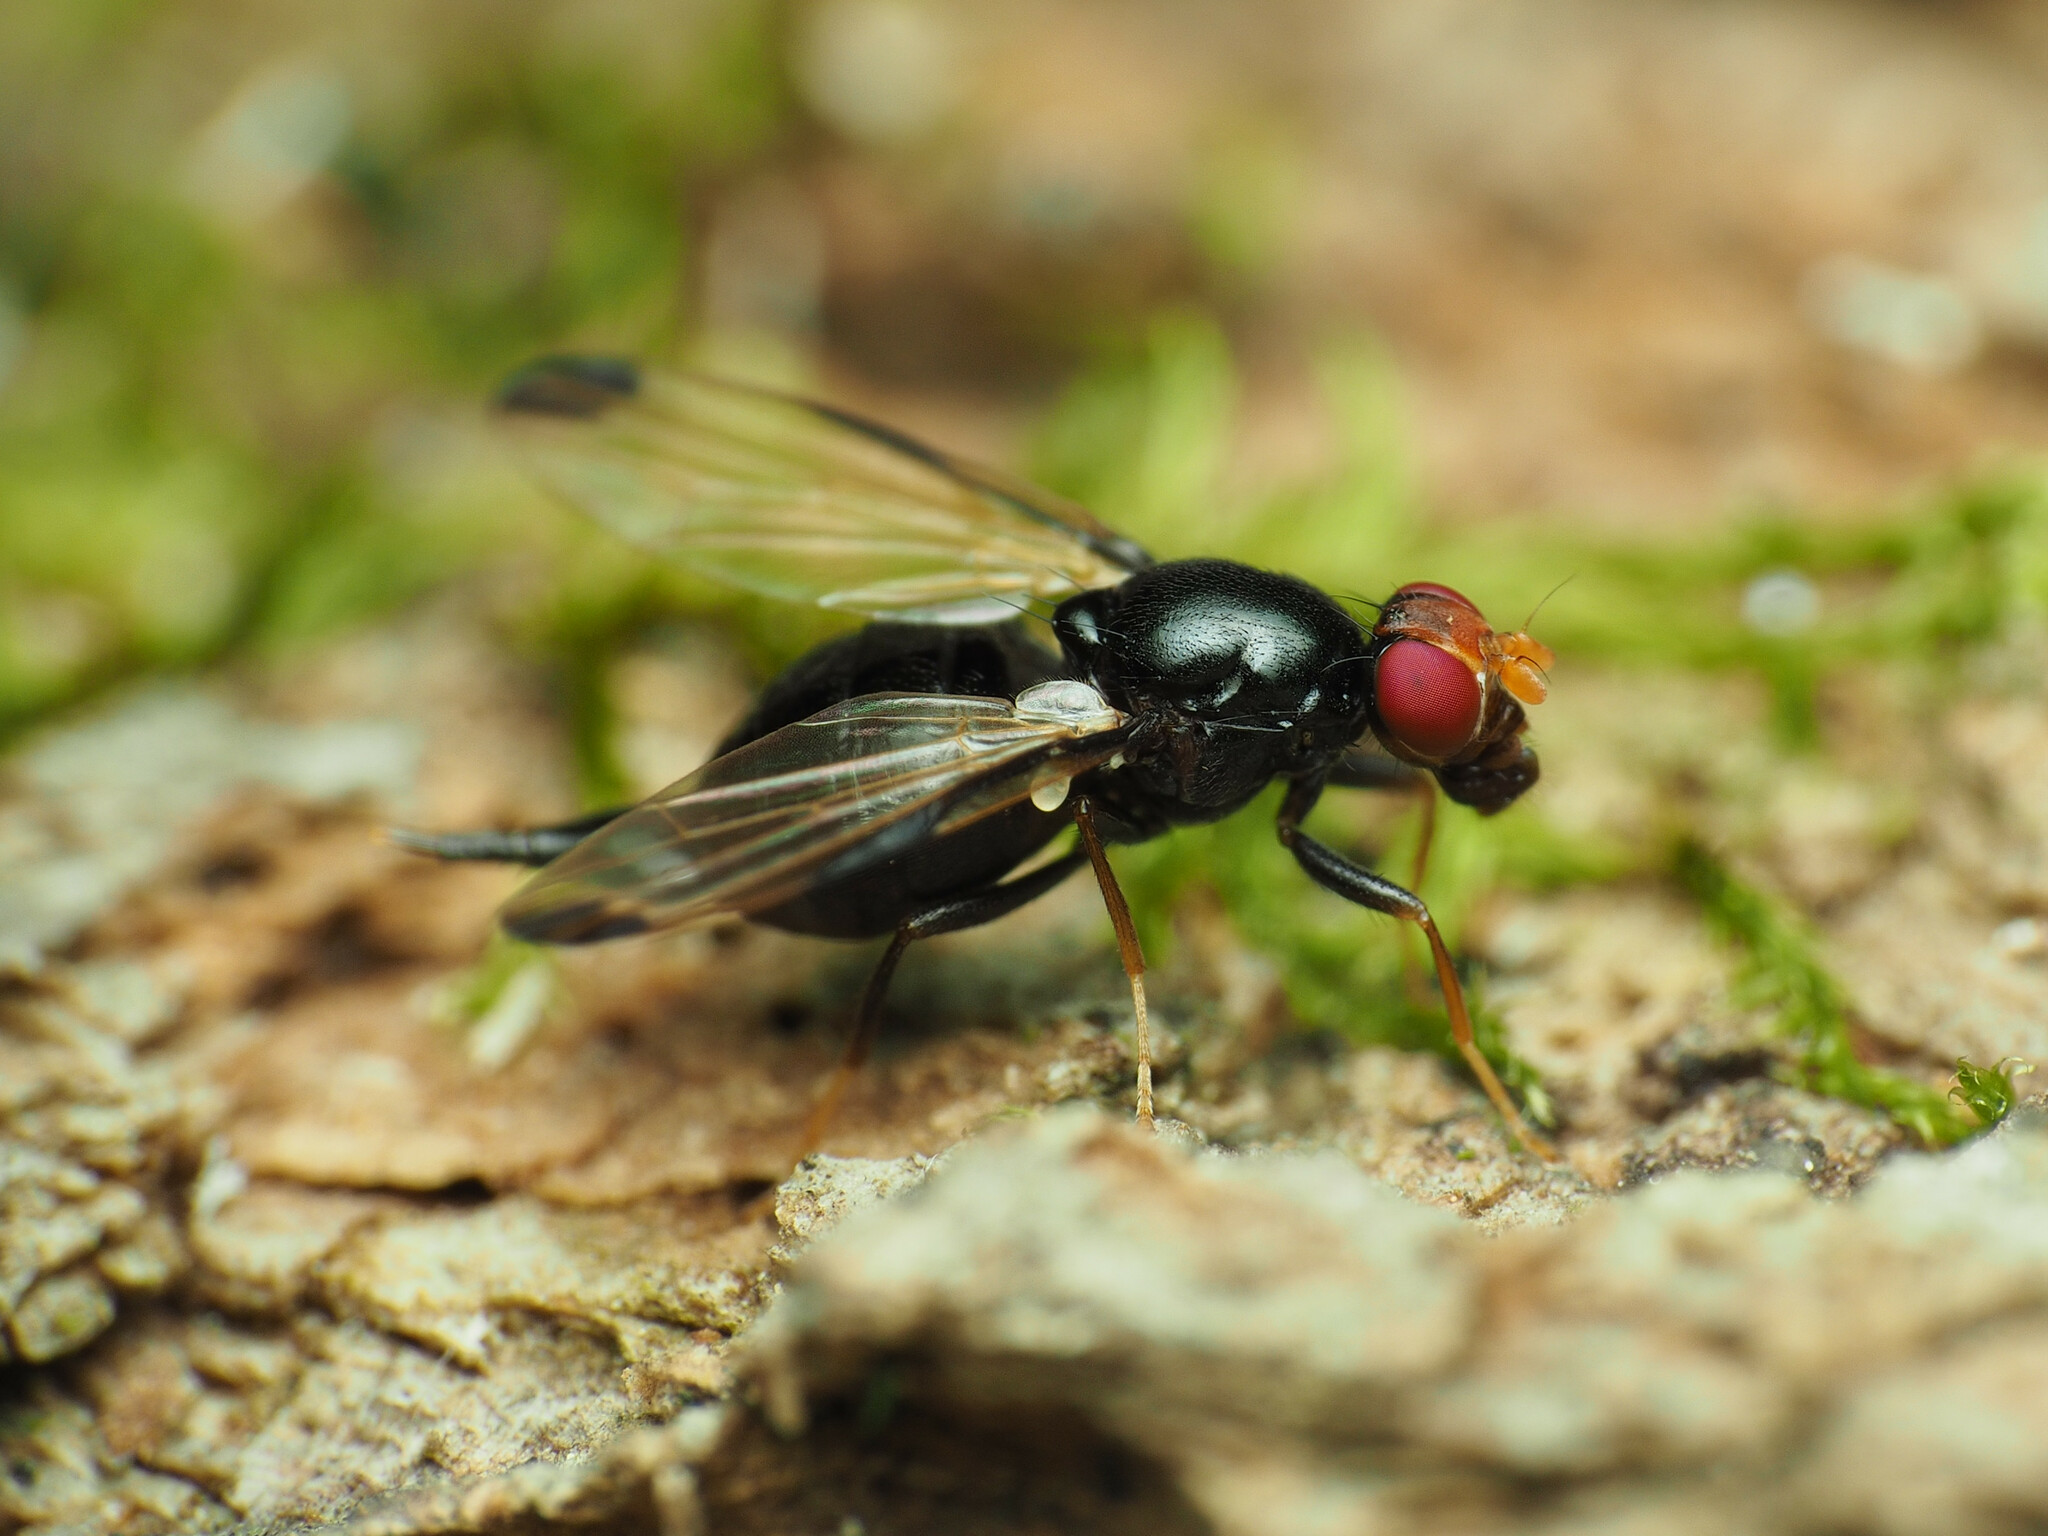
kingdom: Animalia
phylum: Arthropoda
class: Insecta
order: Diptera
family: Ulidiidae
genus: Pseudoseioptera
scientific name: Pseudoseioptera albipes
